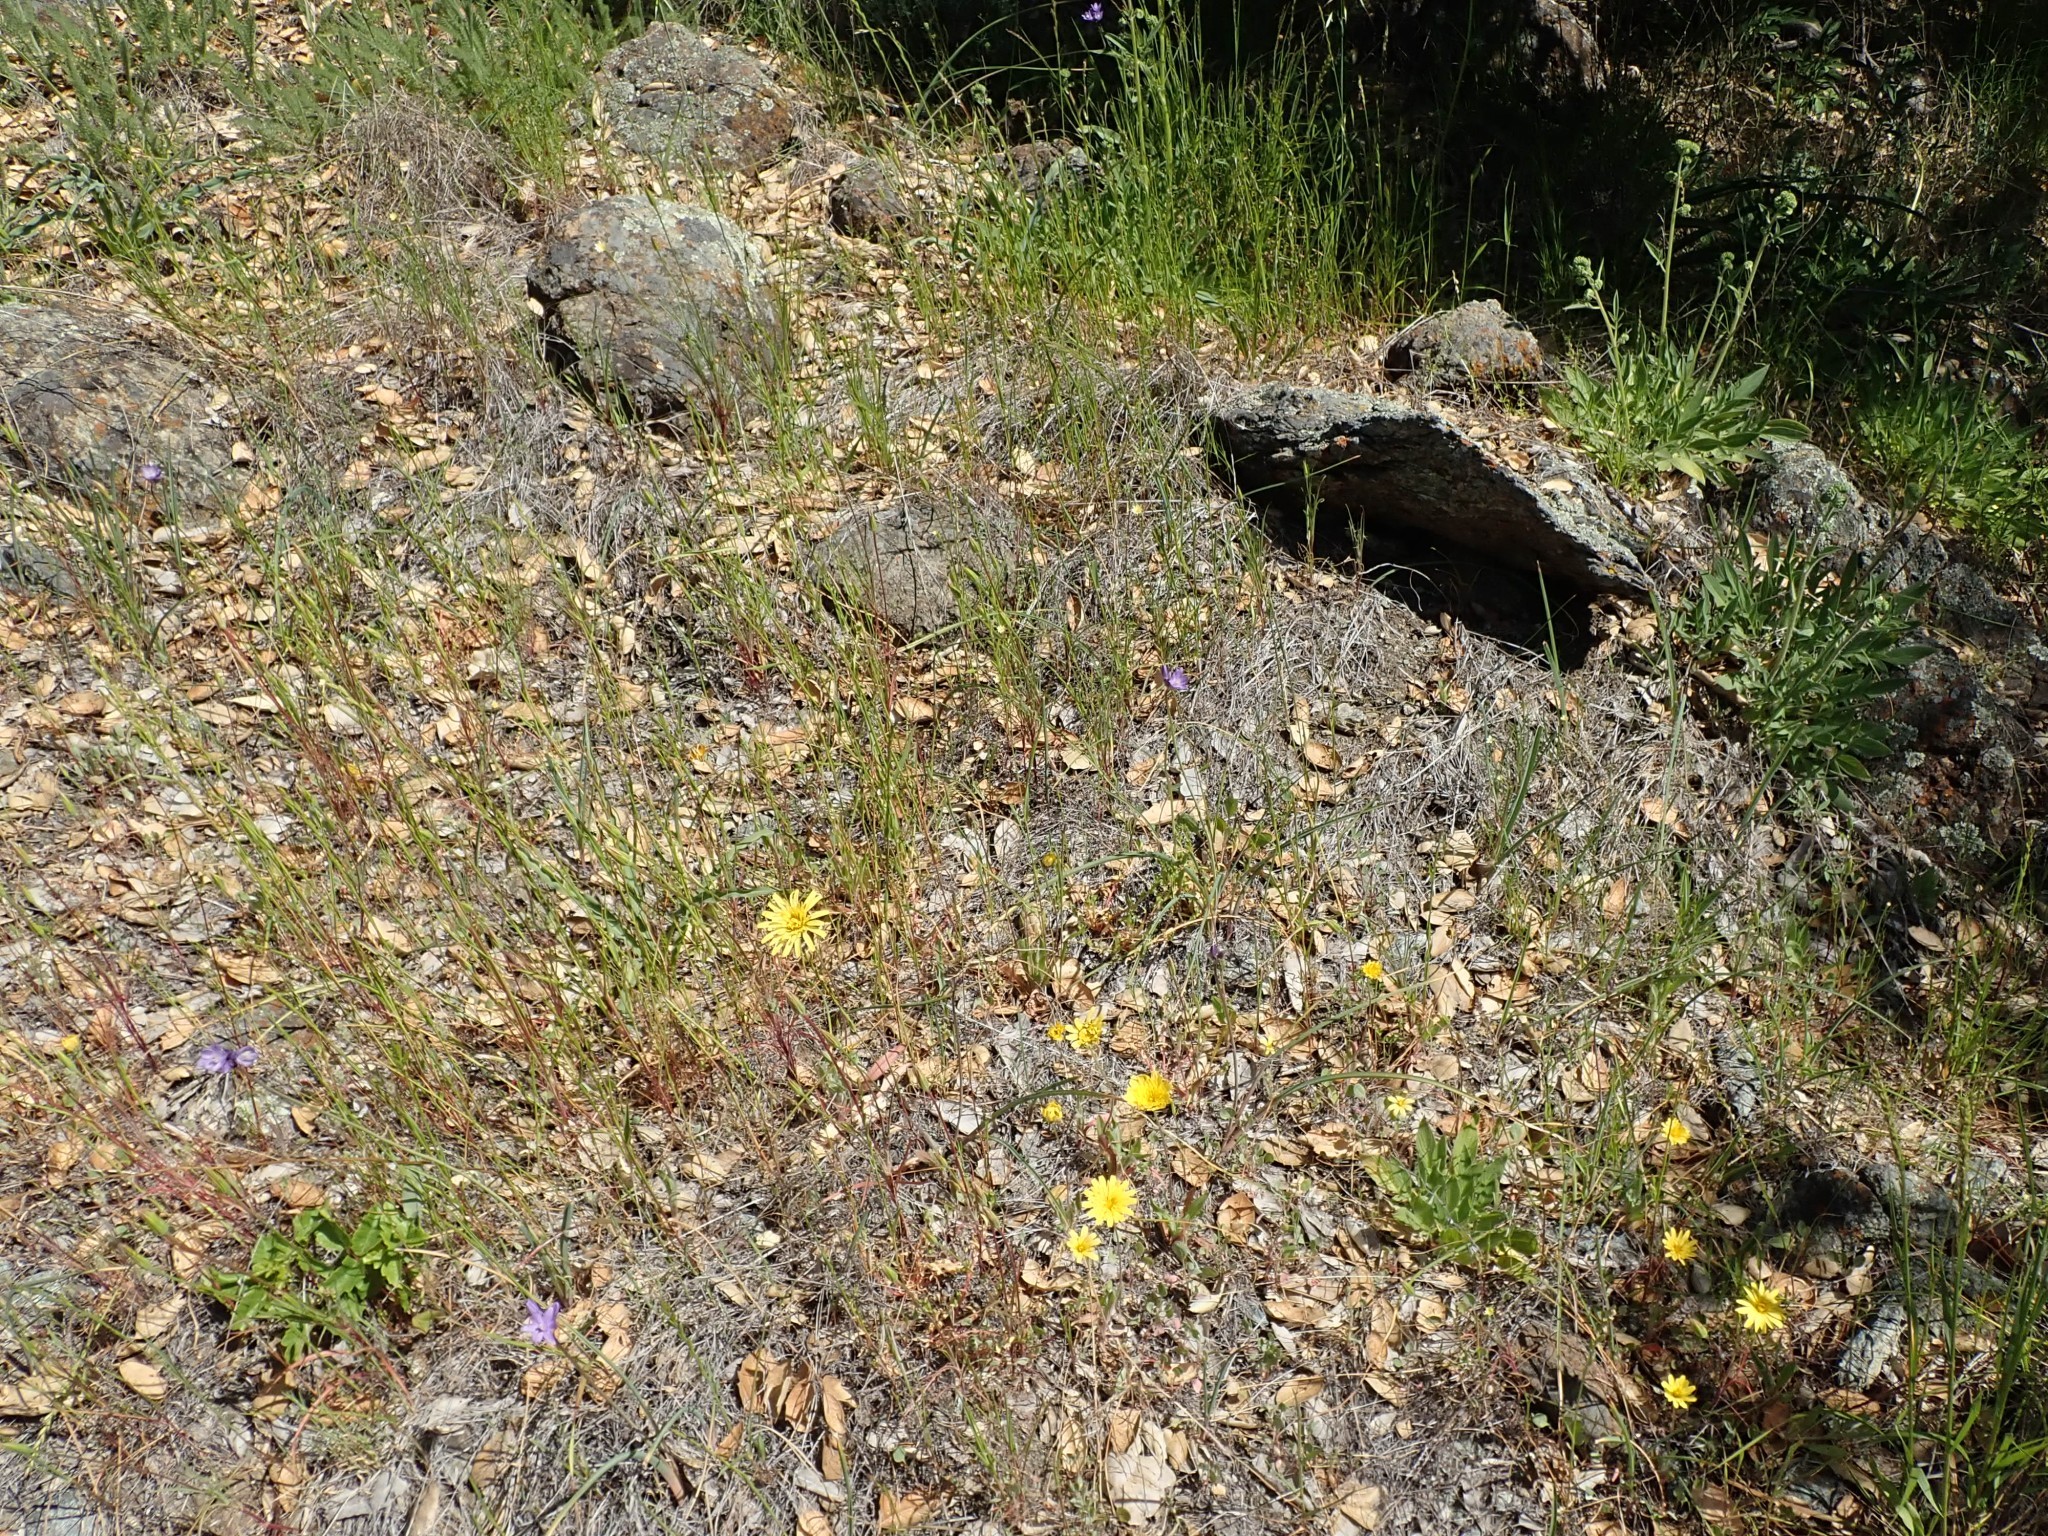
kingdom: Plantae
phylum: Tracheophyta
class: Magnoliopsida
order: Asterales
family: Asteraceae
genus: Agoseris
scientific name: Agoseris heterophylla
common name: Annual agoseris
